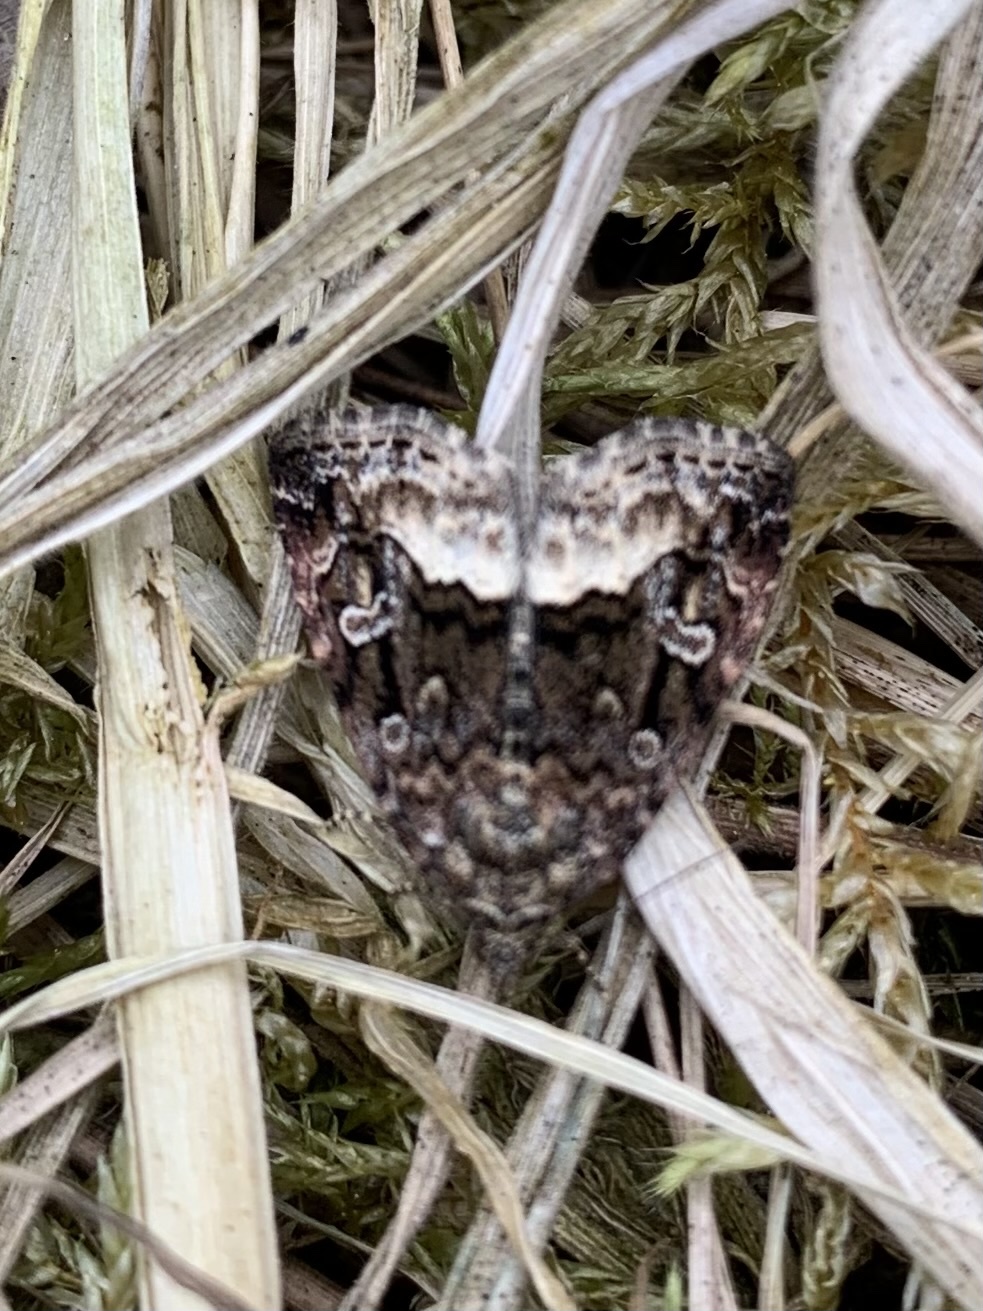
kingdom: Animalia
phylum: Arthropoda
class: Insecta
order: Lepidoptera
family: Noctuidae
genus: Deltote
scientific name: Deltote pygarga
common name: Marbled white spot
